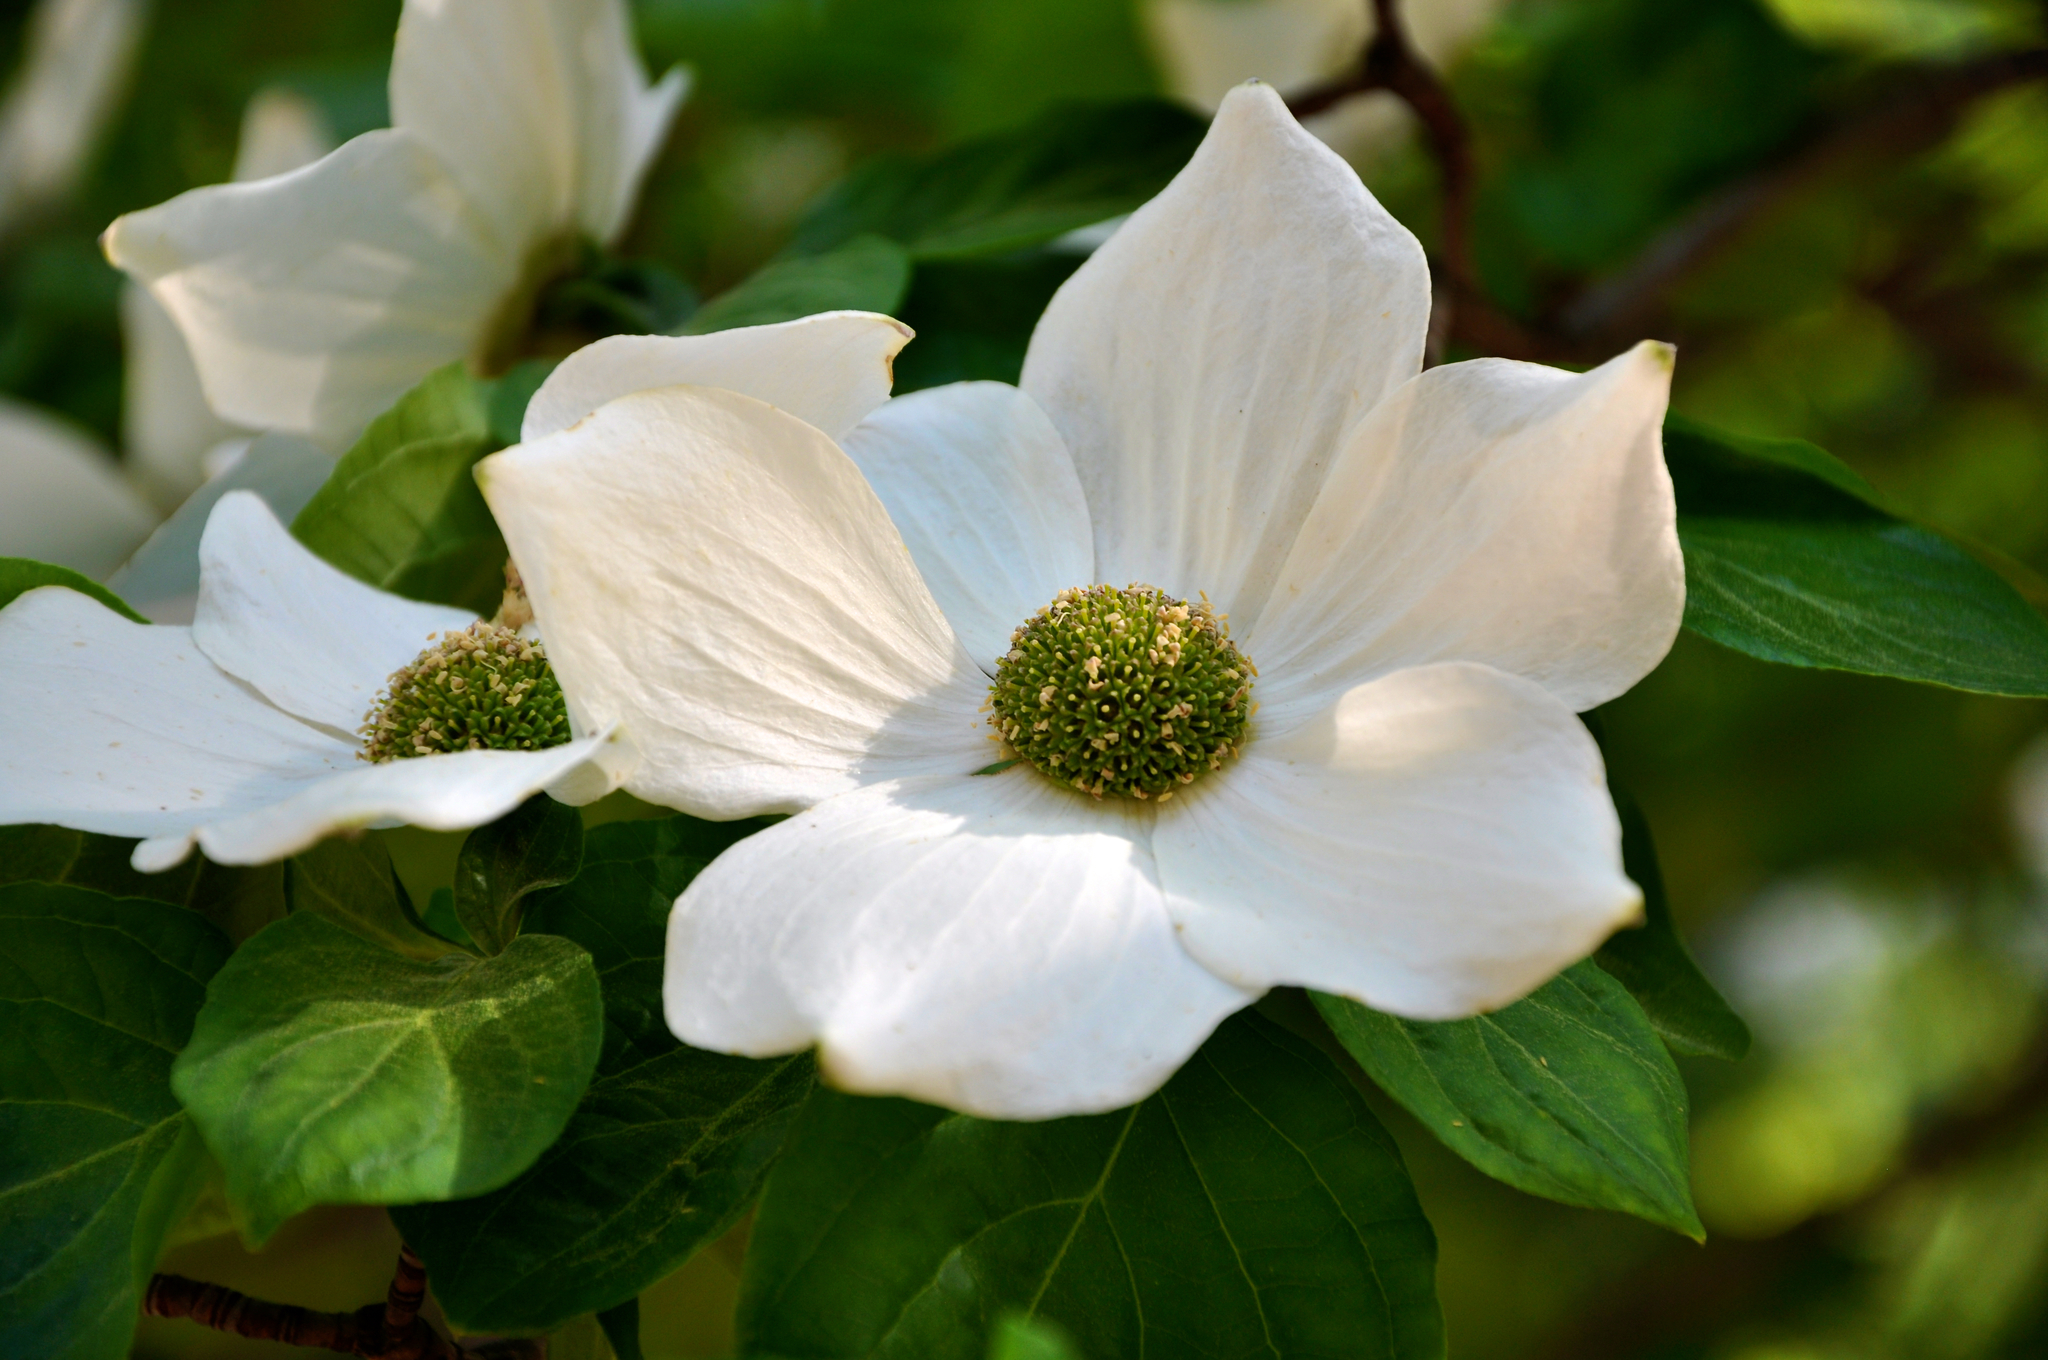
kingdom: Plantae
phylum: Tracheophyta
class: Magnoliopsida
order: Cornales
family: Cornaceae
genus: Cornus
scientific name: Cornus nuttallii
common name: Pacific dogwood
